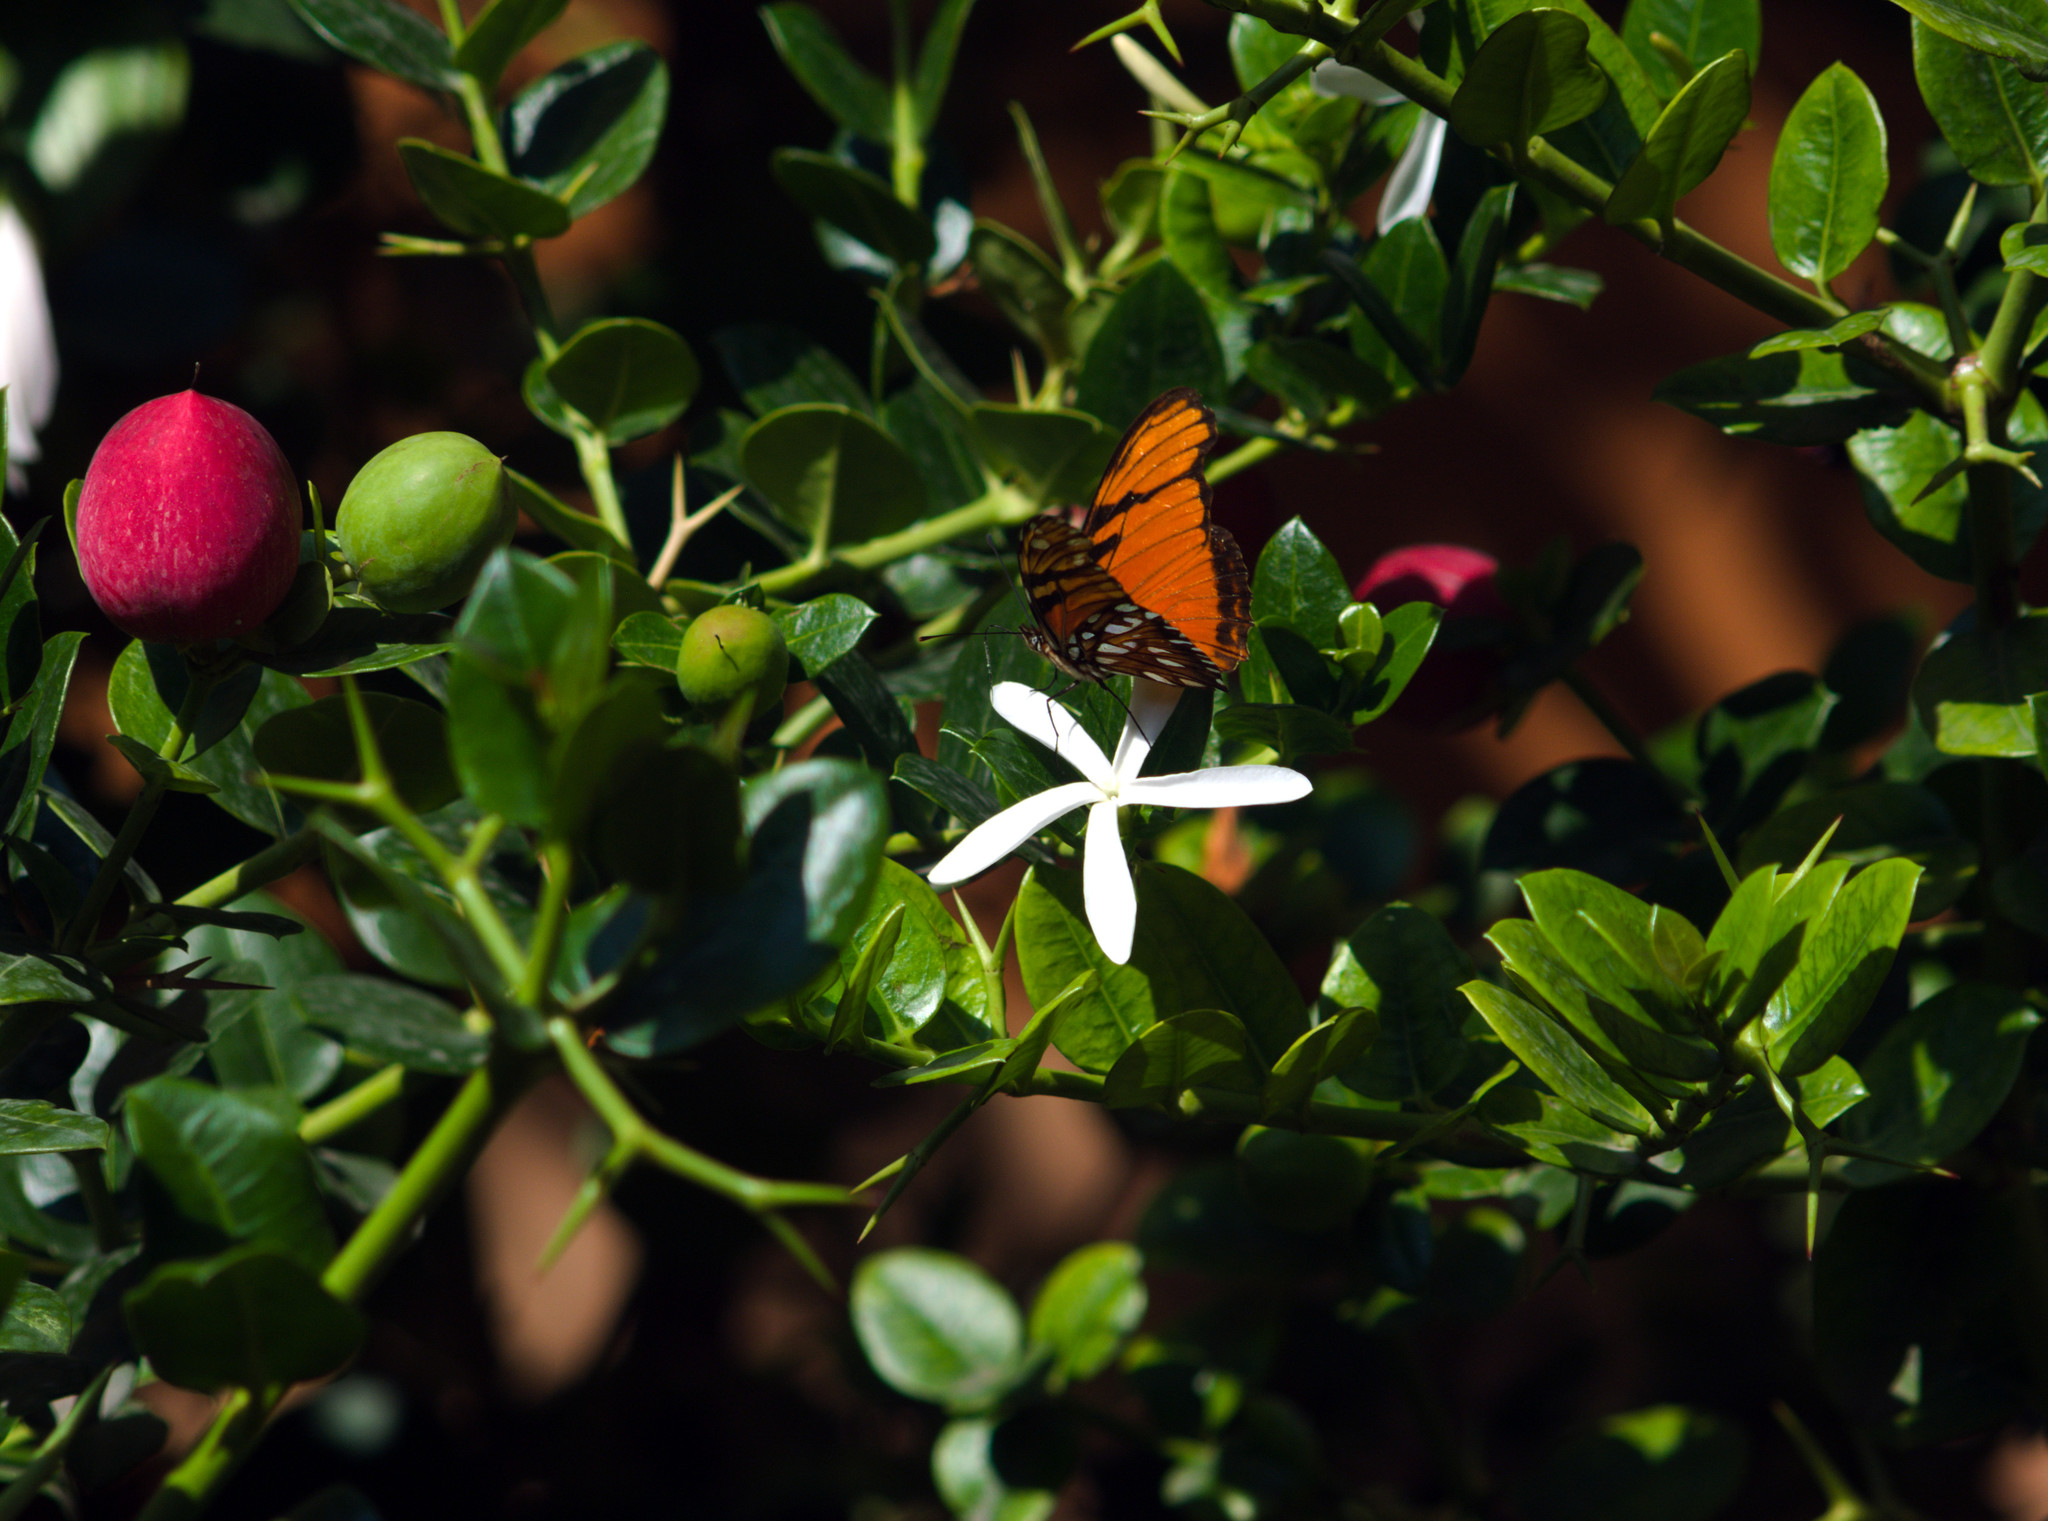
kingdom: Animalia
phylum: Arthropoda
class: Insecta
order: Lepidoptera
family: Nymphalidae
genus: Dione
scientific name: Dione juno
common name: Juno silverspot
